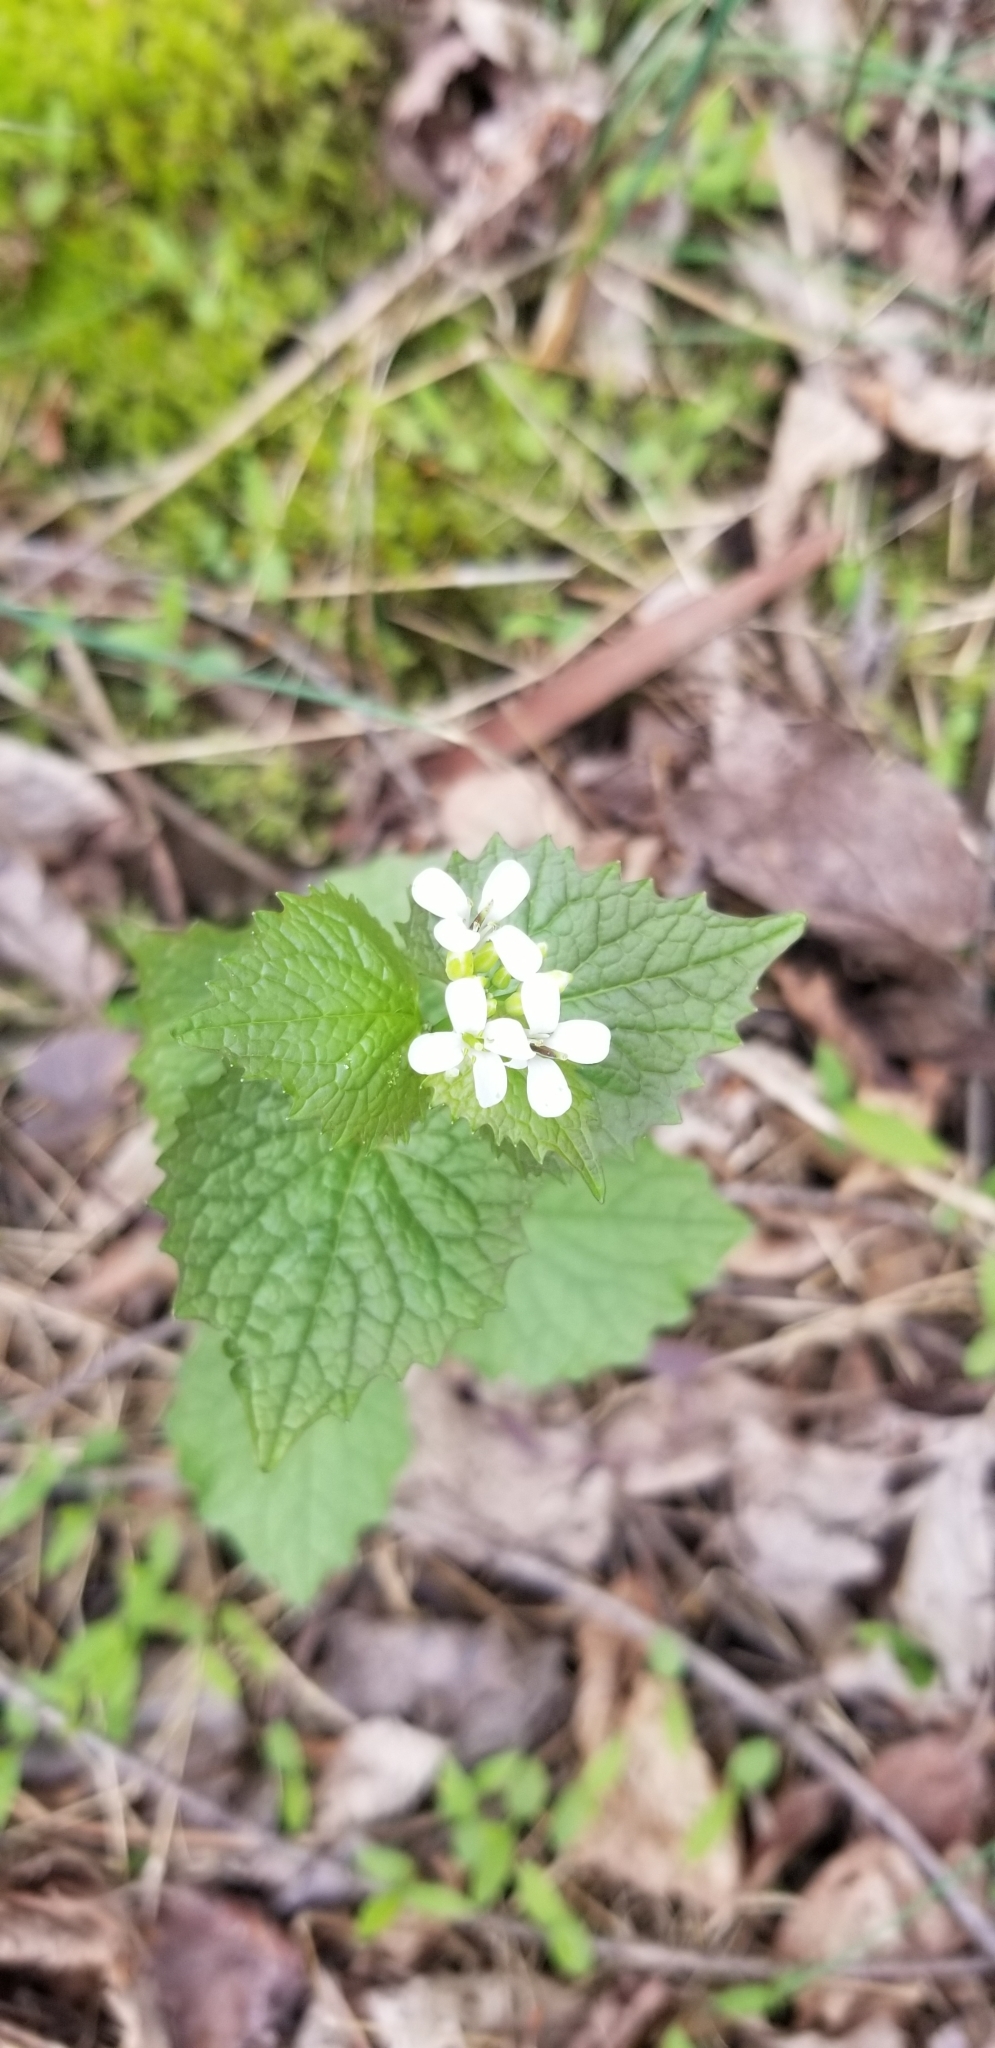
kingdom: Plantae
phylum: Tracheophyta
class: Magnoliopsida
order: Brassicales
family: Brassicaceae
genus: Alliaria
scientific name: Alliaria petiolata
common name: Garlic mustard
